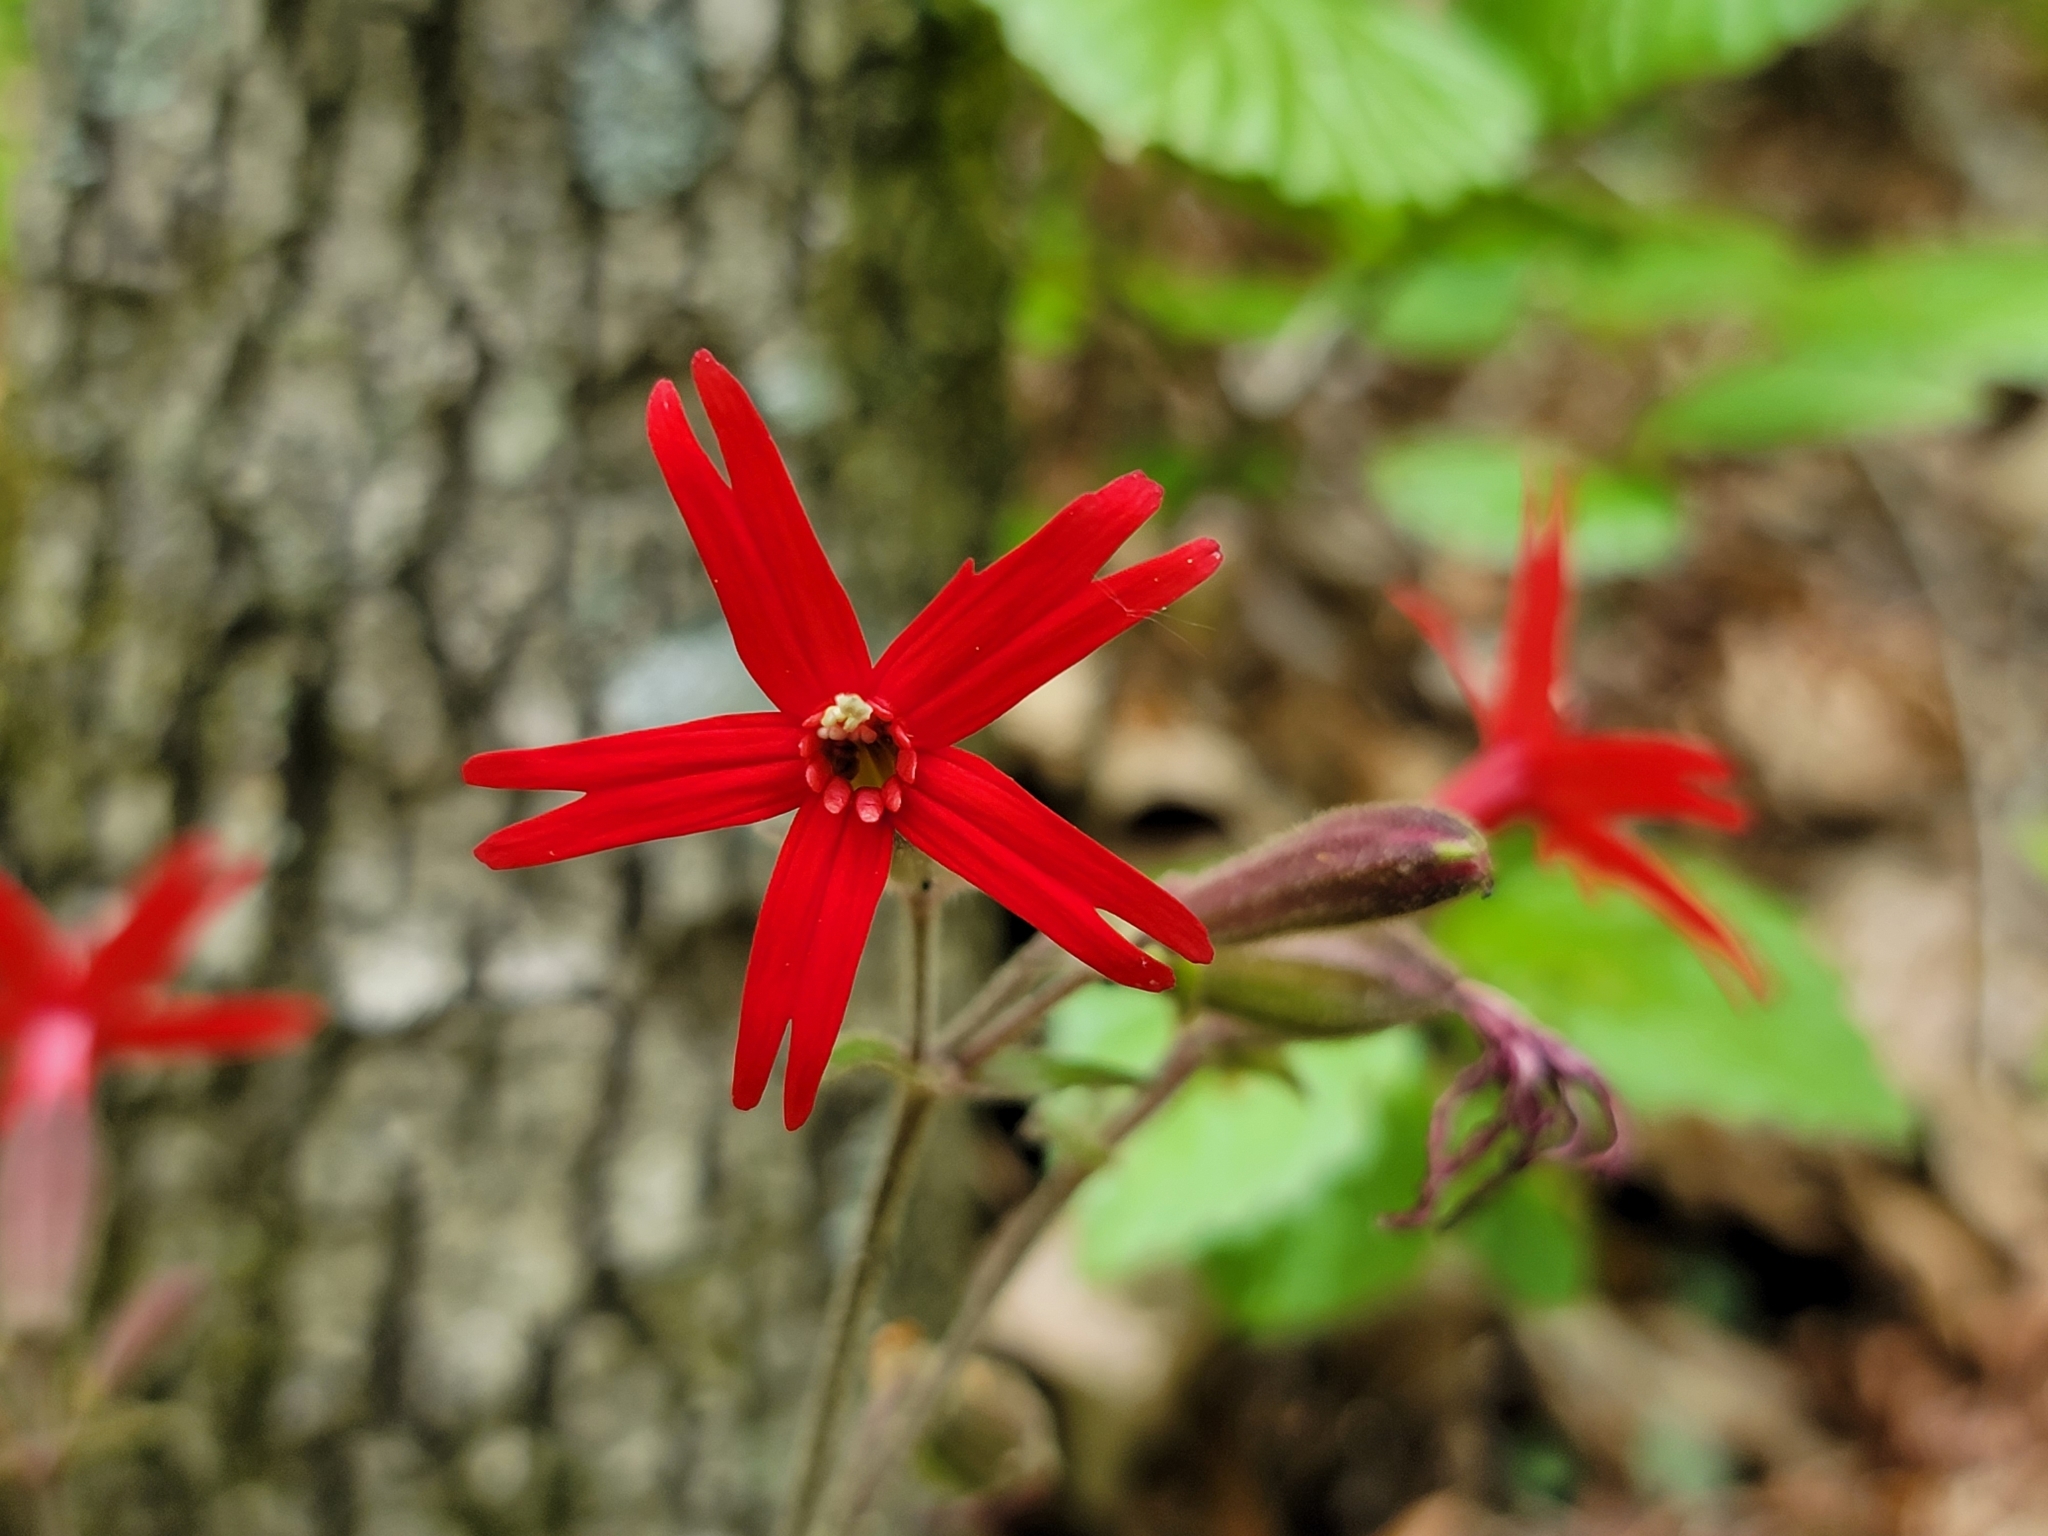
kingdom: Plantae
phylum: Tracheophyta
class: Magnoliopsida
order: Caryophyllales
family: Caryophyllaceae
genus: Silene
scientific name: Silene virginica
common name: Fire-pink
